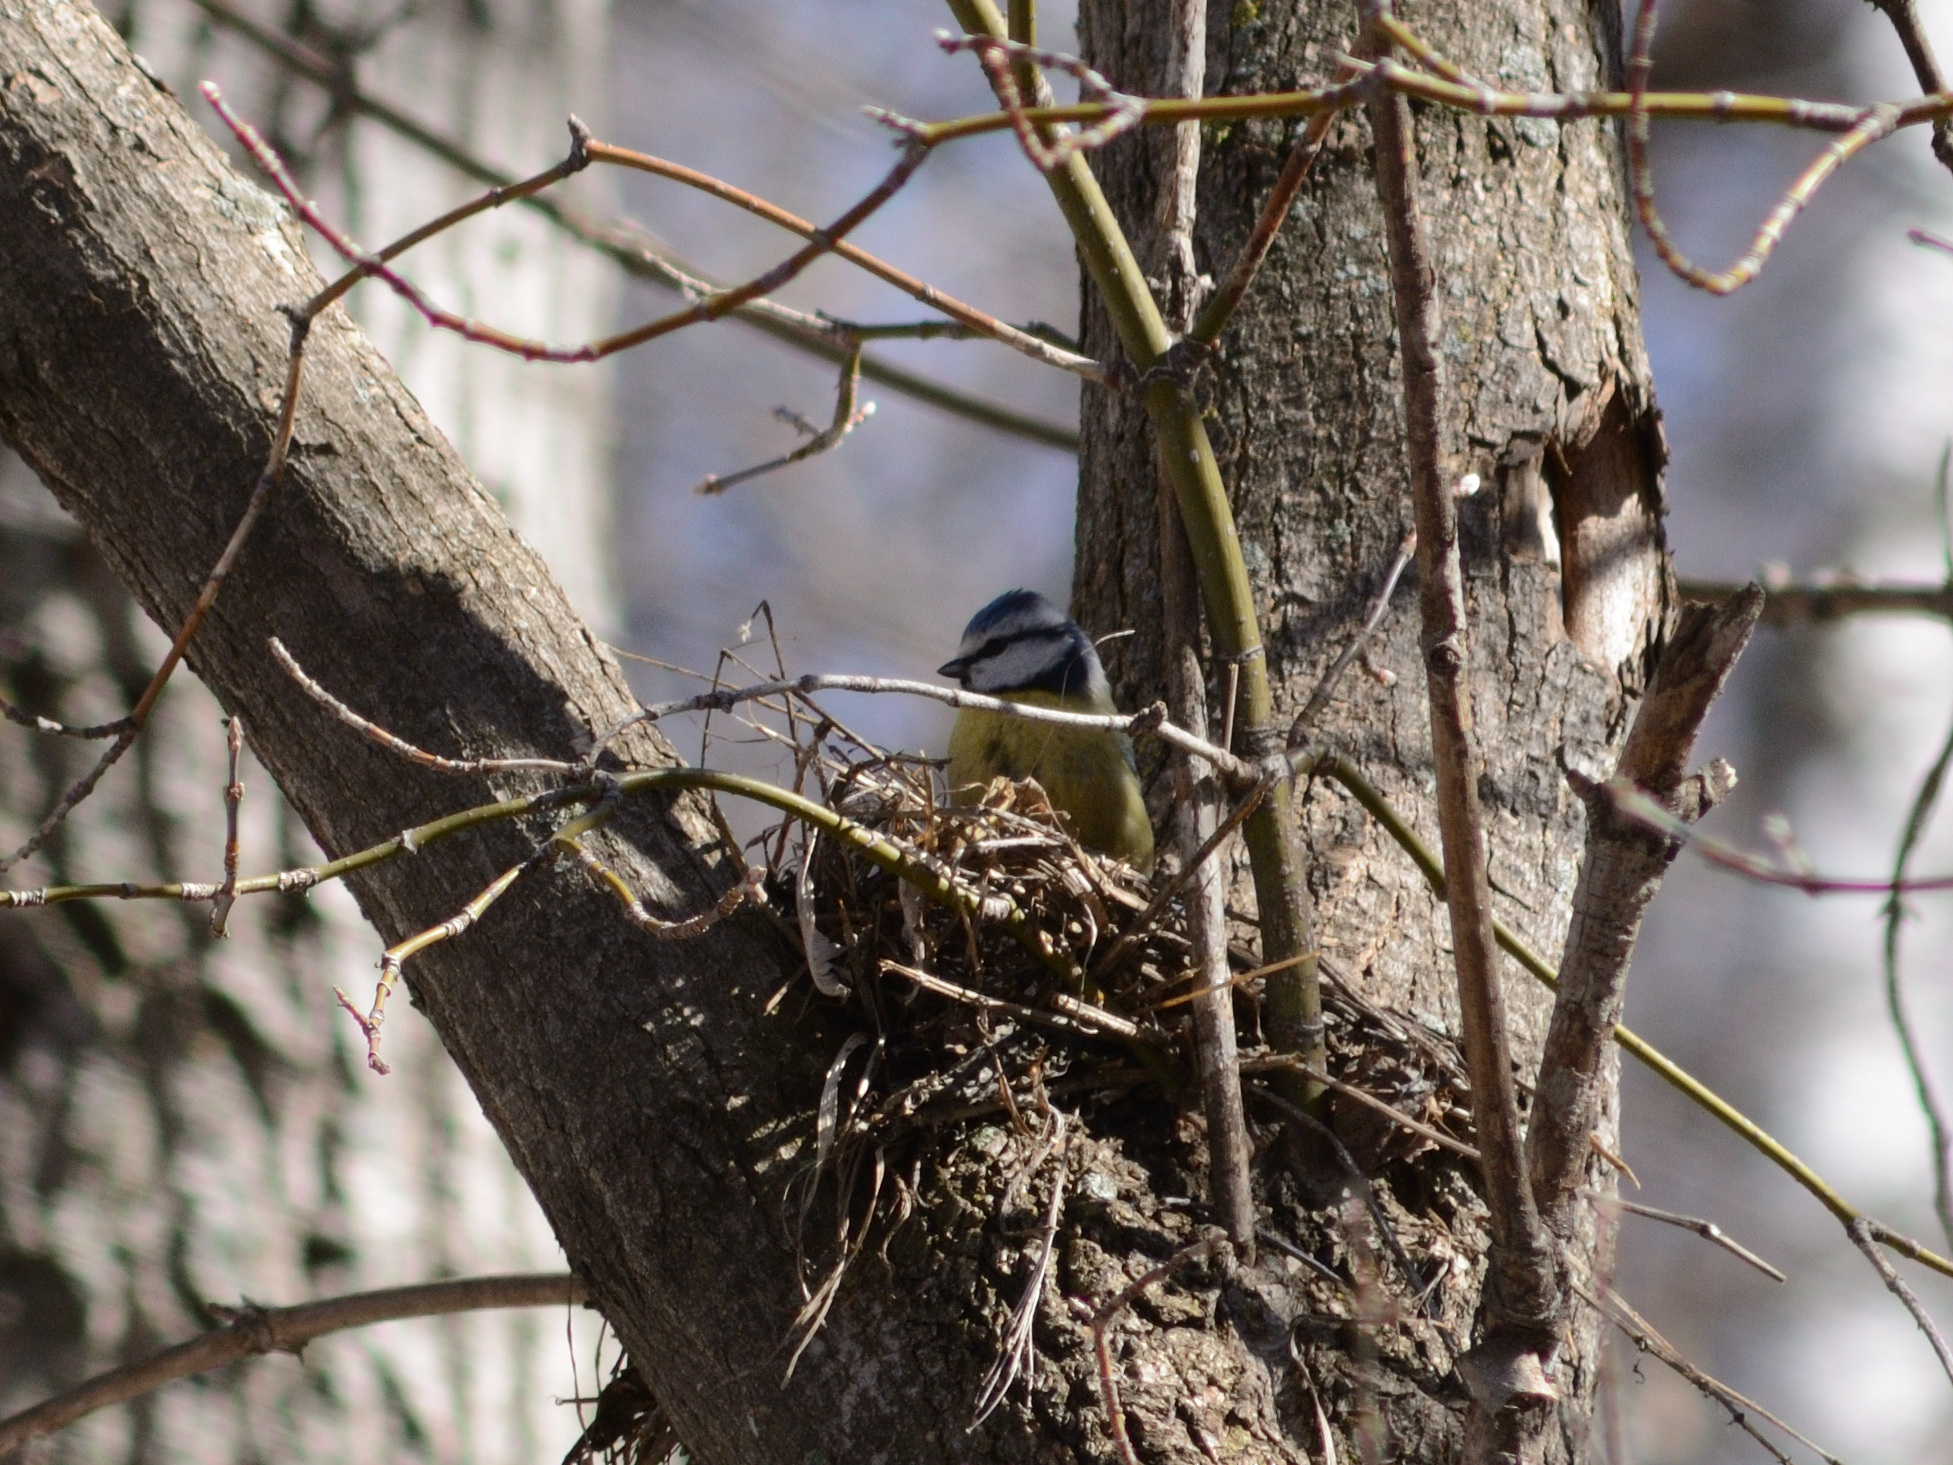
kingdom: Animalia
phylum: Chordata
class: Aves
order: Passeriformes
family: Paridae
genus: Cyanistes
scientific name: Cyanistes caeruleus
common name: Eurasian blue tit
